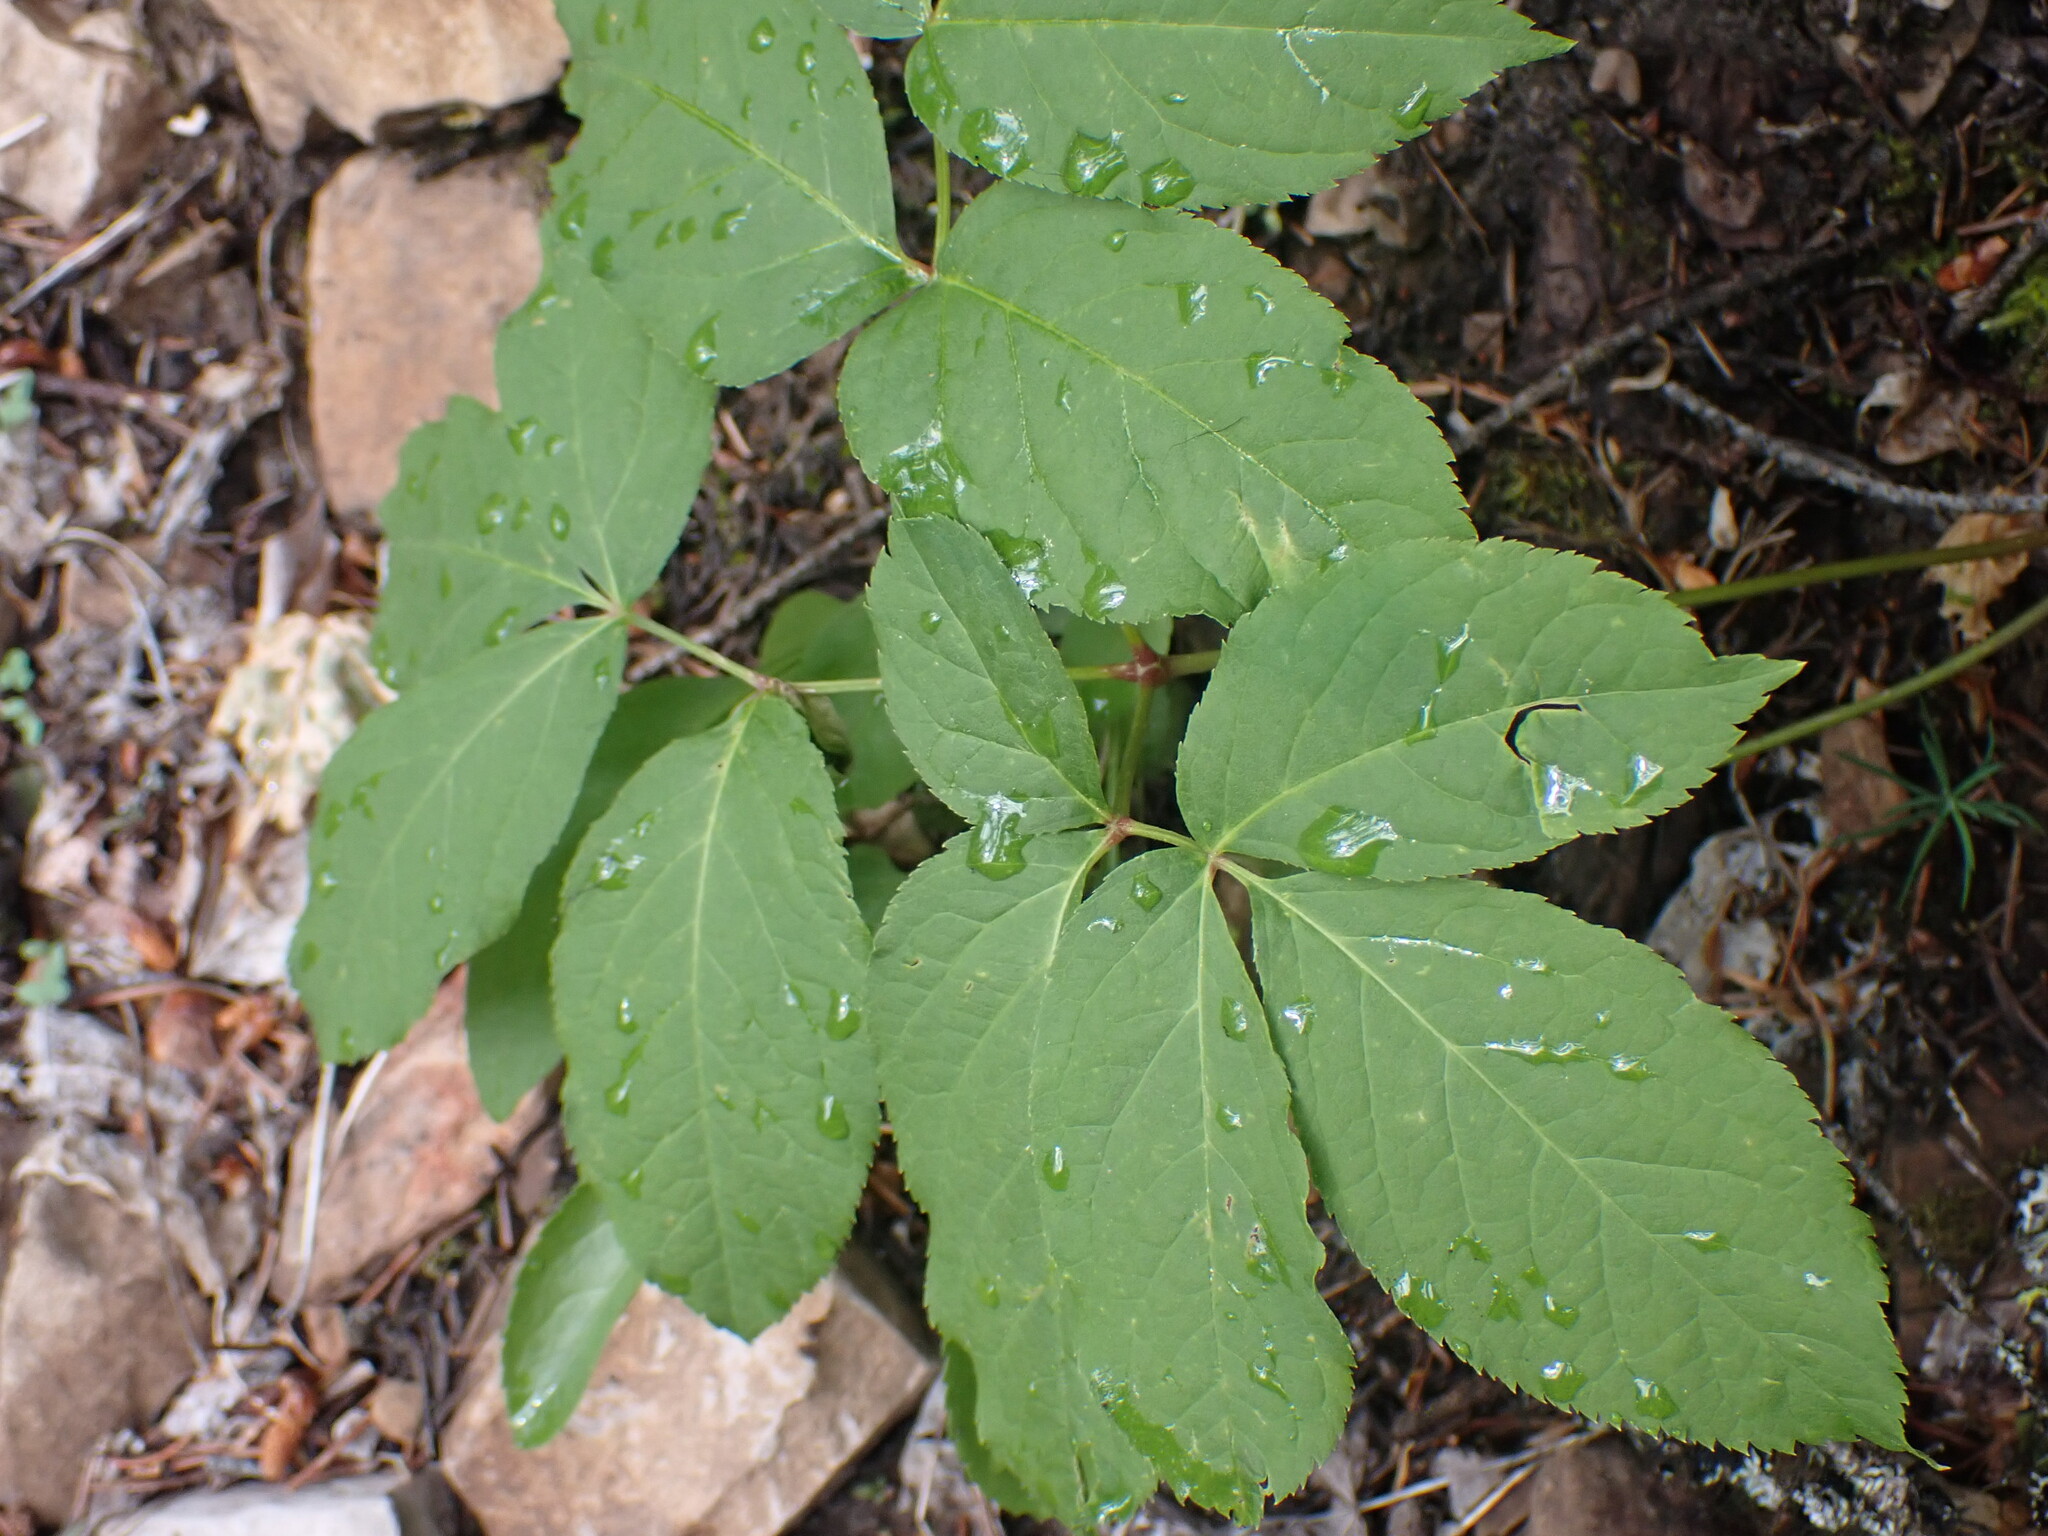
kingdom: Plantae
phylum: Tracheophyta
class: Magnoliopsida
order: Apiales
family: Araliaceae
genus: Aralia
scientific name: Aralia nudicaulis
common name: Wild sarsaparilla
